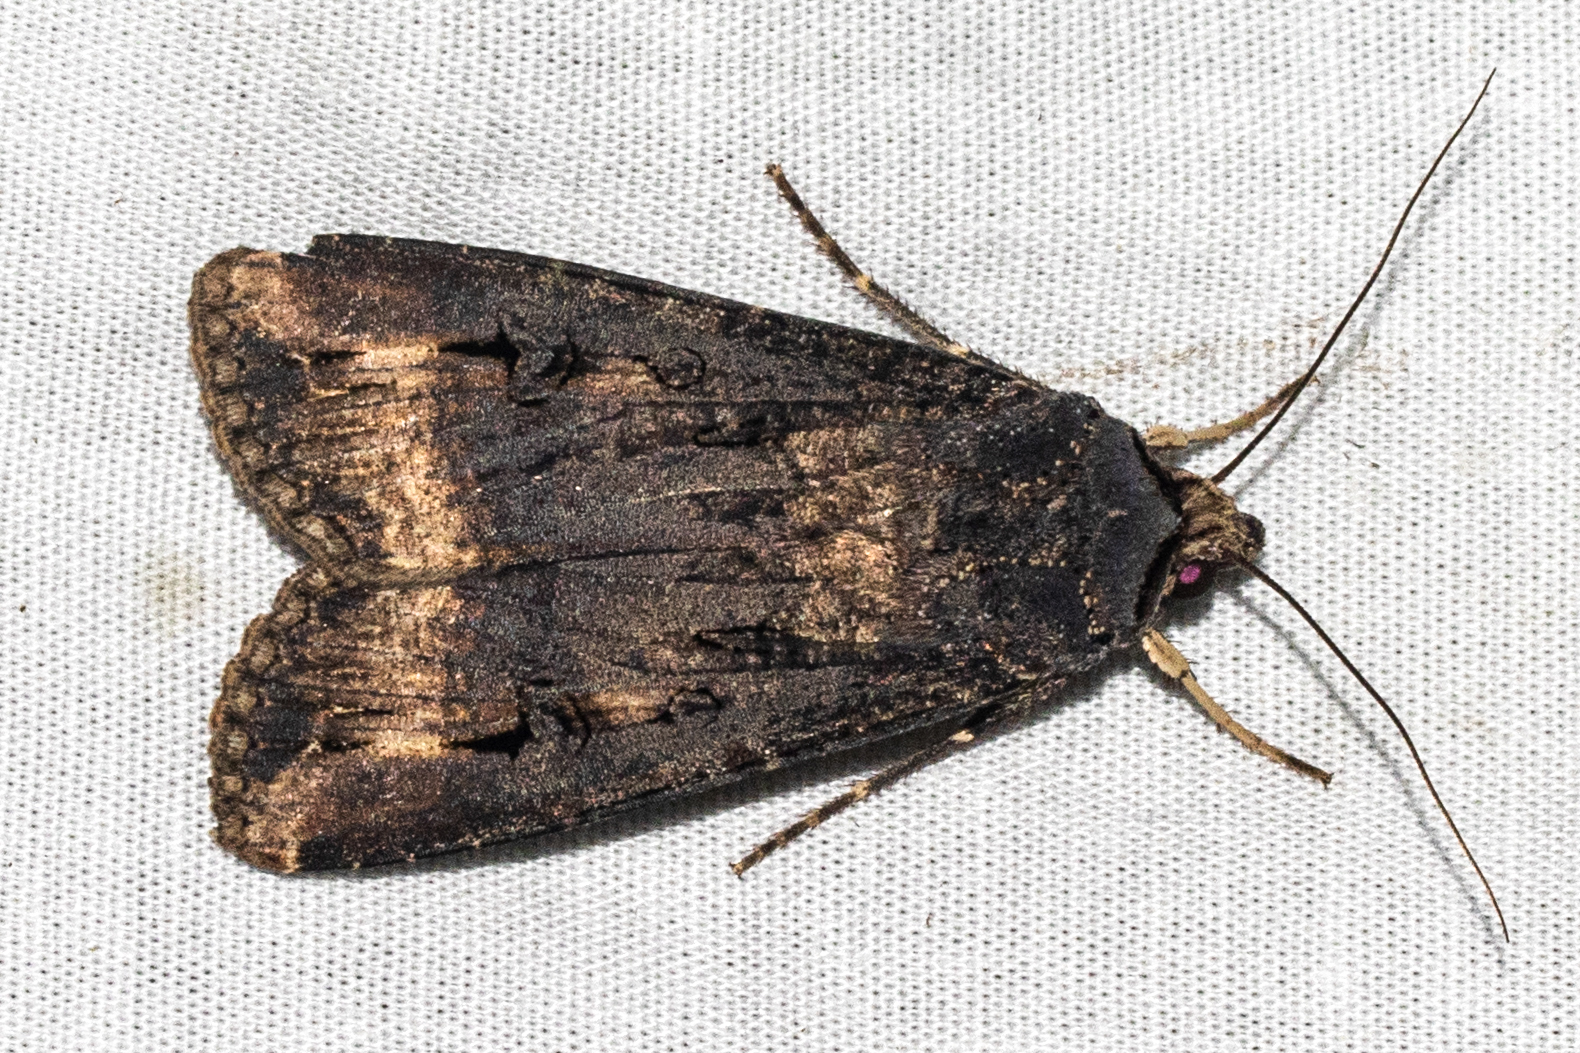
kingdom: Animalia
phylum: Arthropoda
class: Insecta
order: Lepidoptera
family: Noctuidae
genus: Agrotis
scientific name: Agrotis ipsilon
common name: Dark sword-grass
